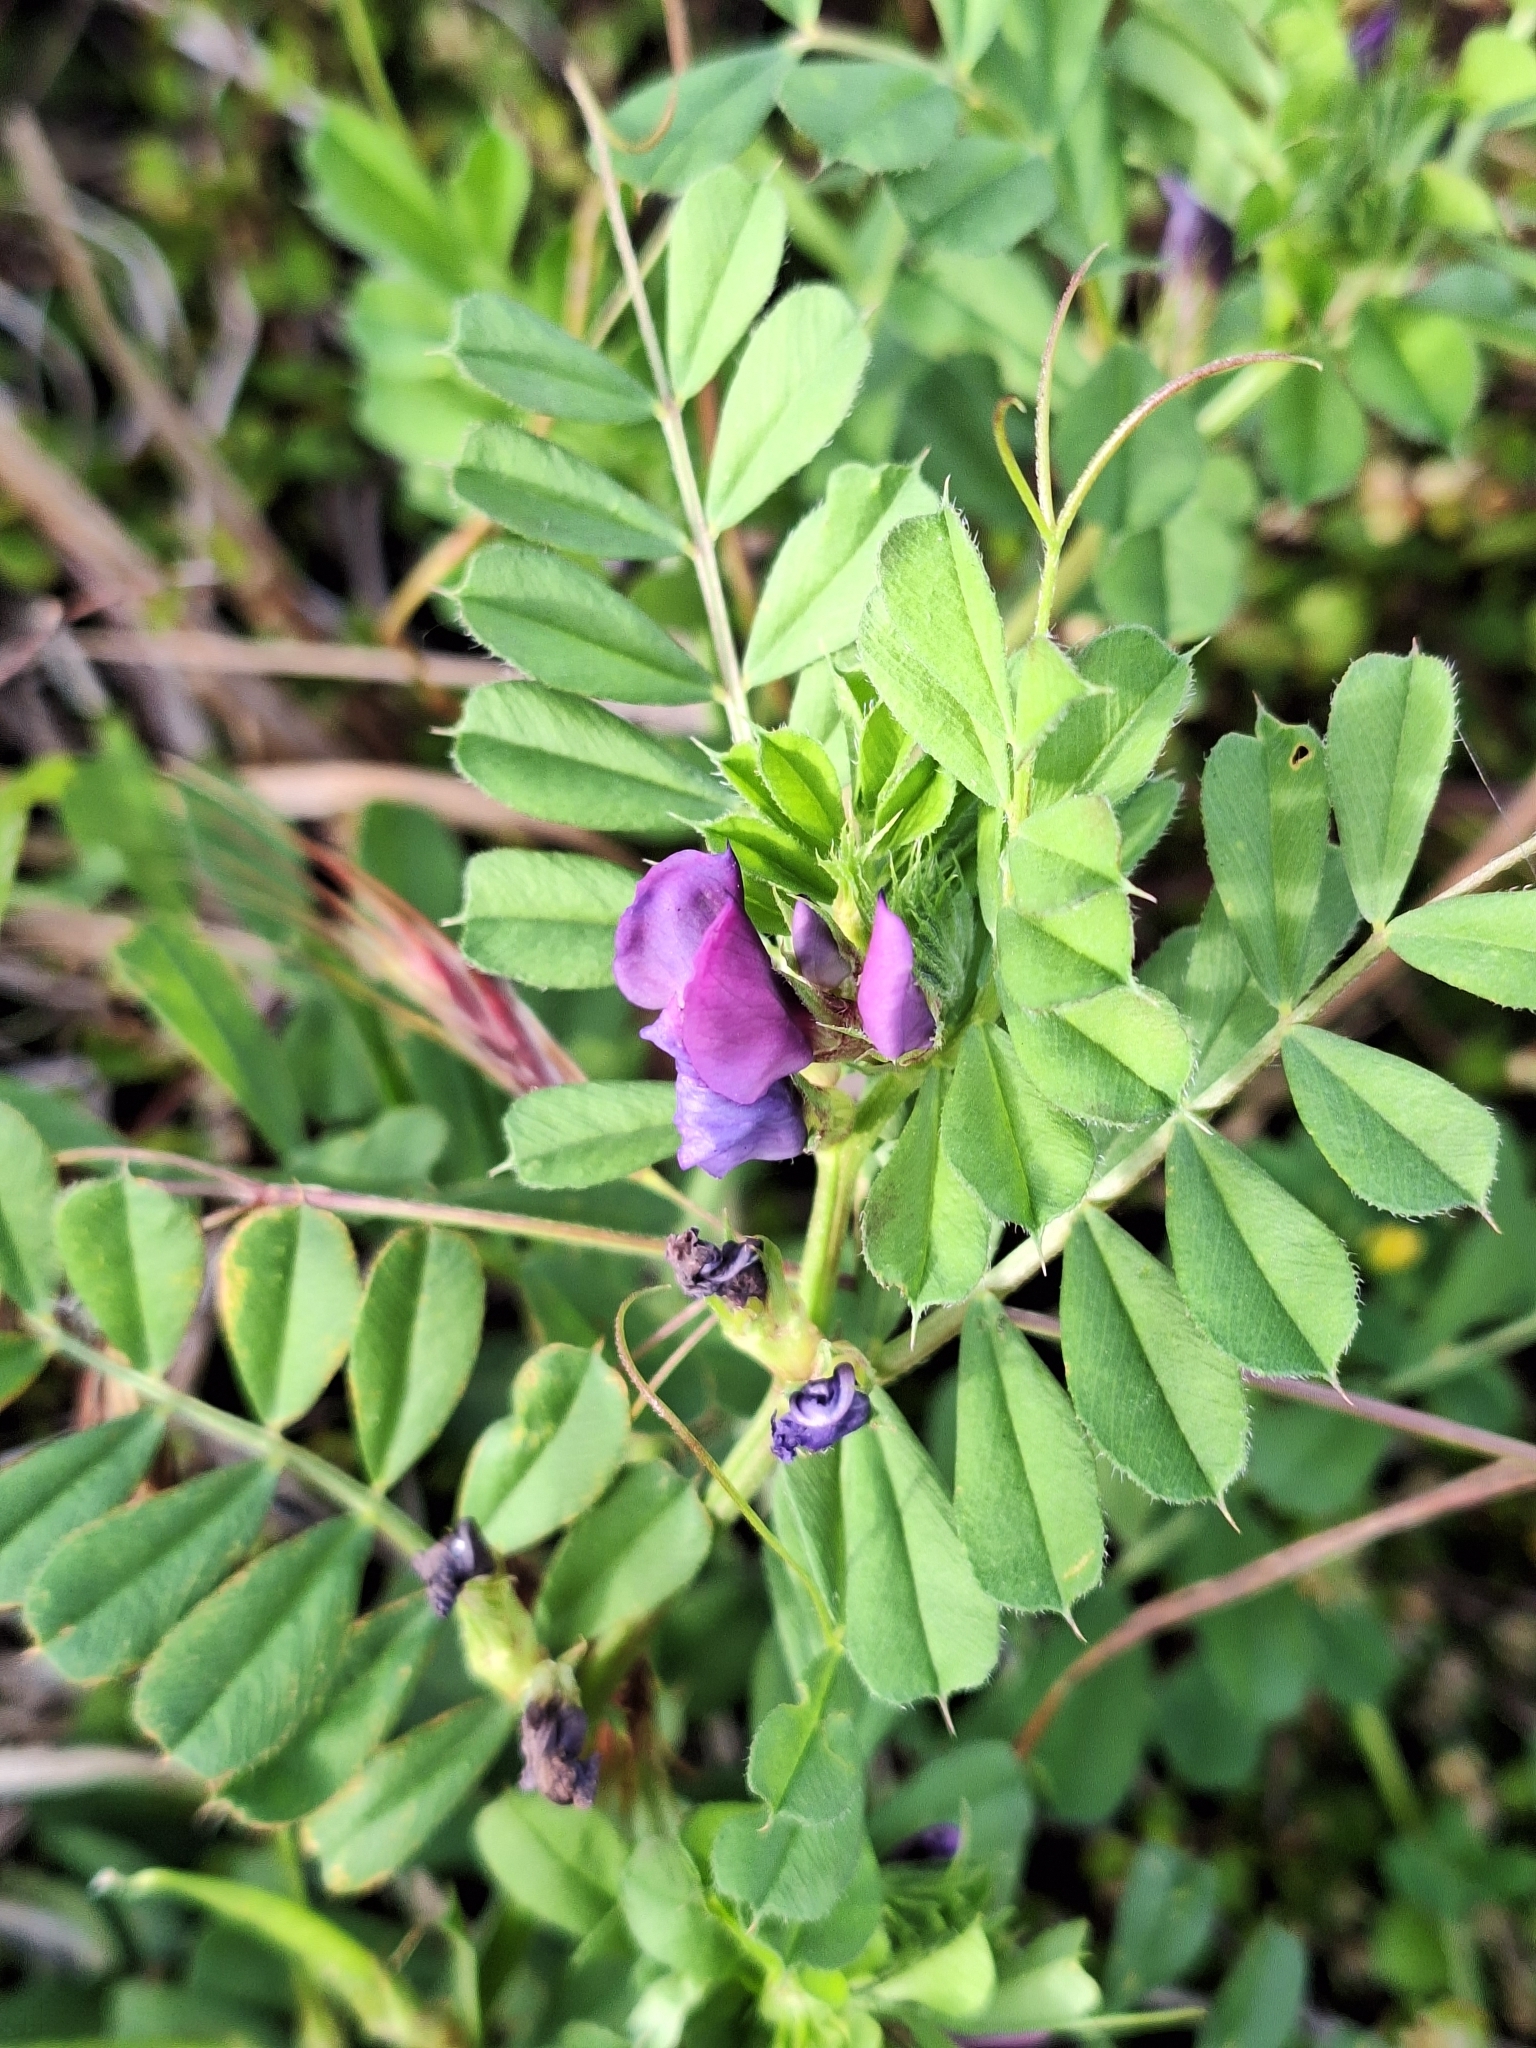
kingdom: Plantae
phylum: Tracheophyta
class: Magnoliopsida
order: Fabales
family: Fabaceae
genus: Vicia
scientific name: Vicia sativa
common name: Garden vetch
